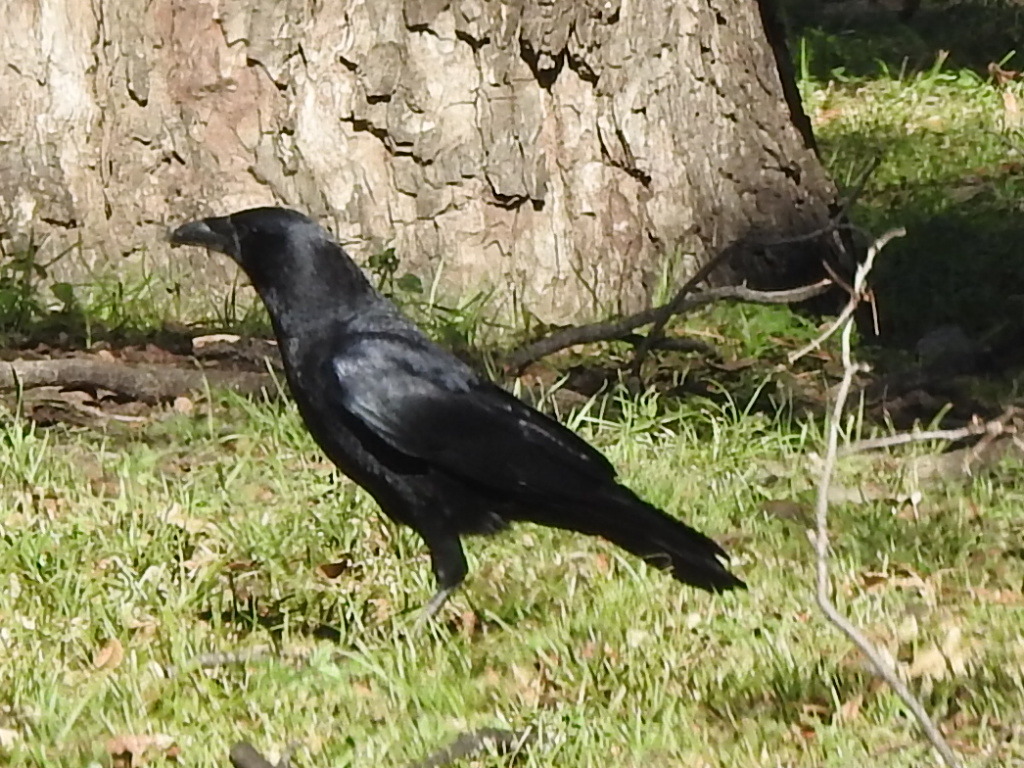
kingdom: Animalia
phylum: Chordata
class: Aves
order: Passeriformes
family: Corvidae
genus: Corvus
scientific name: Corvus brachyrhynchos
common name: American crow
